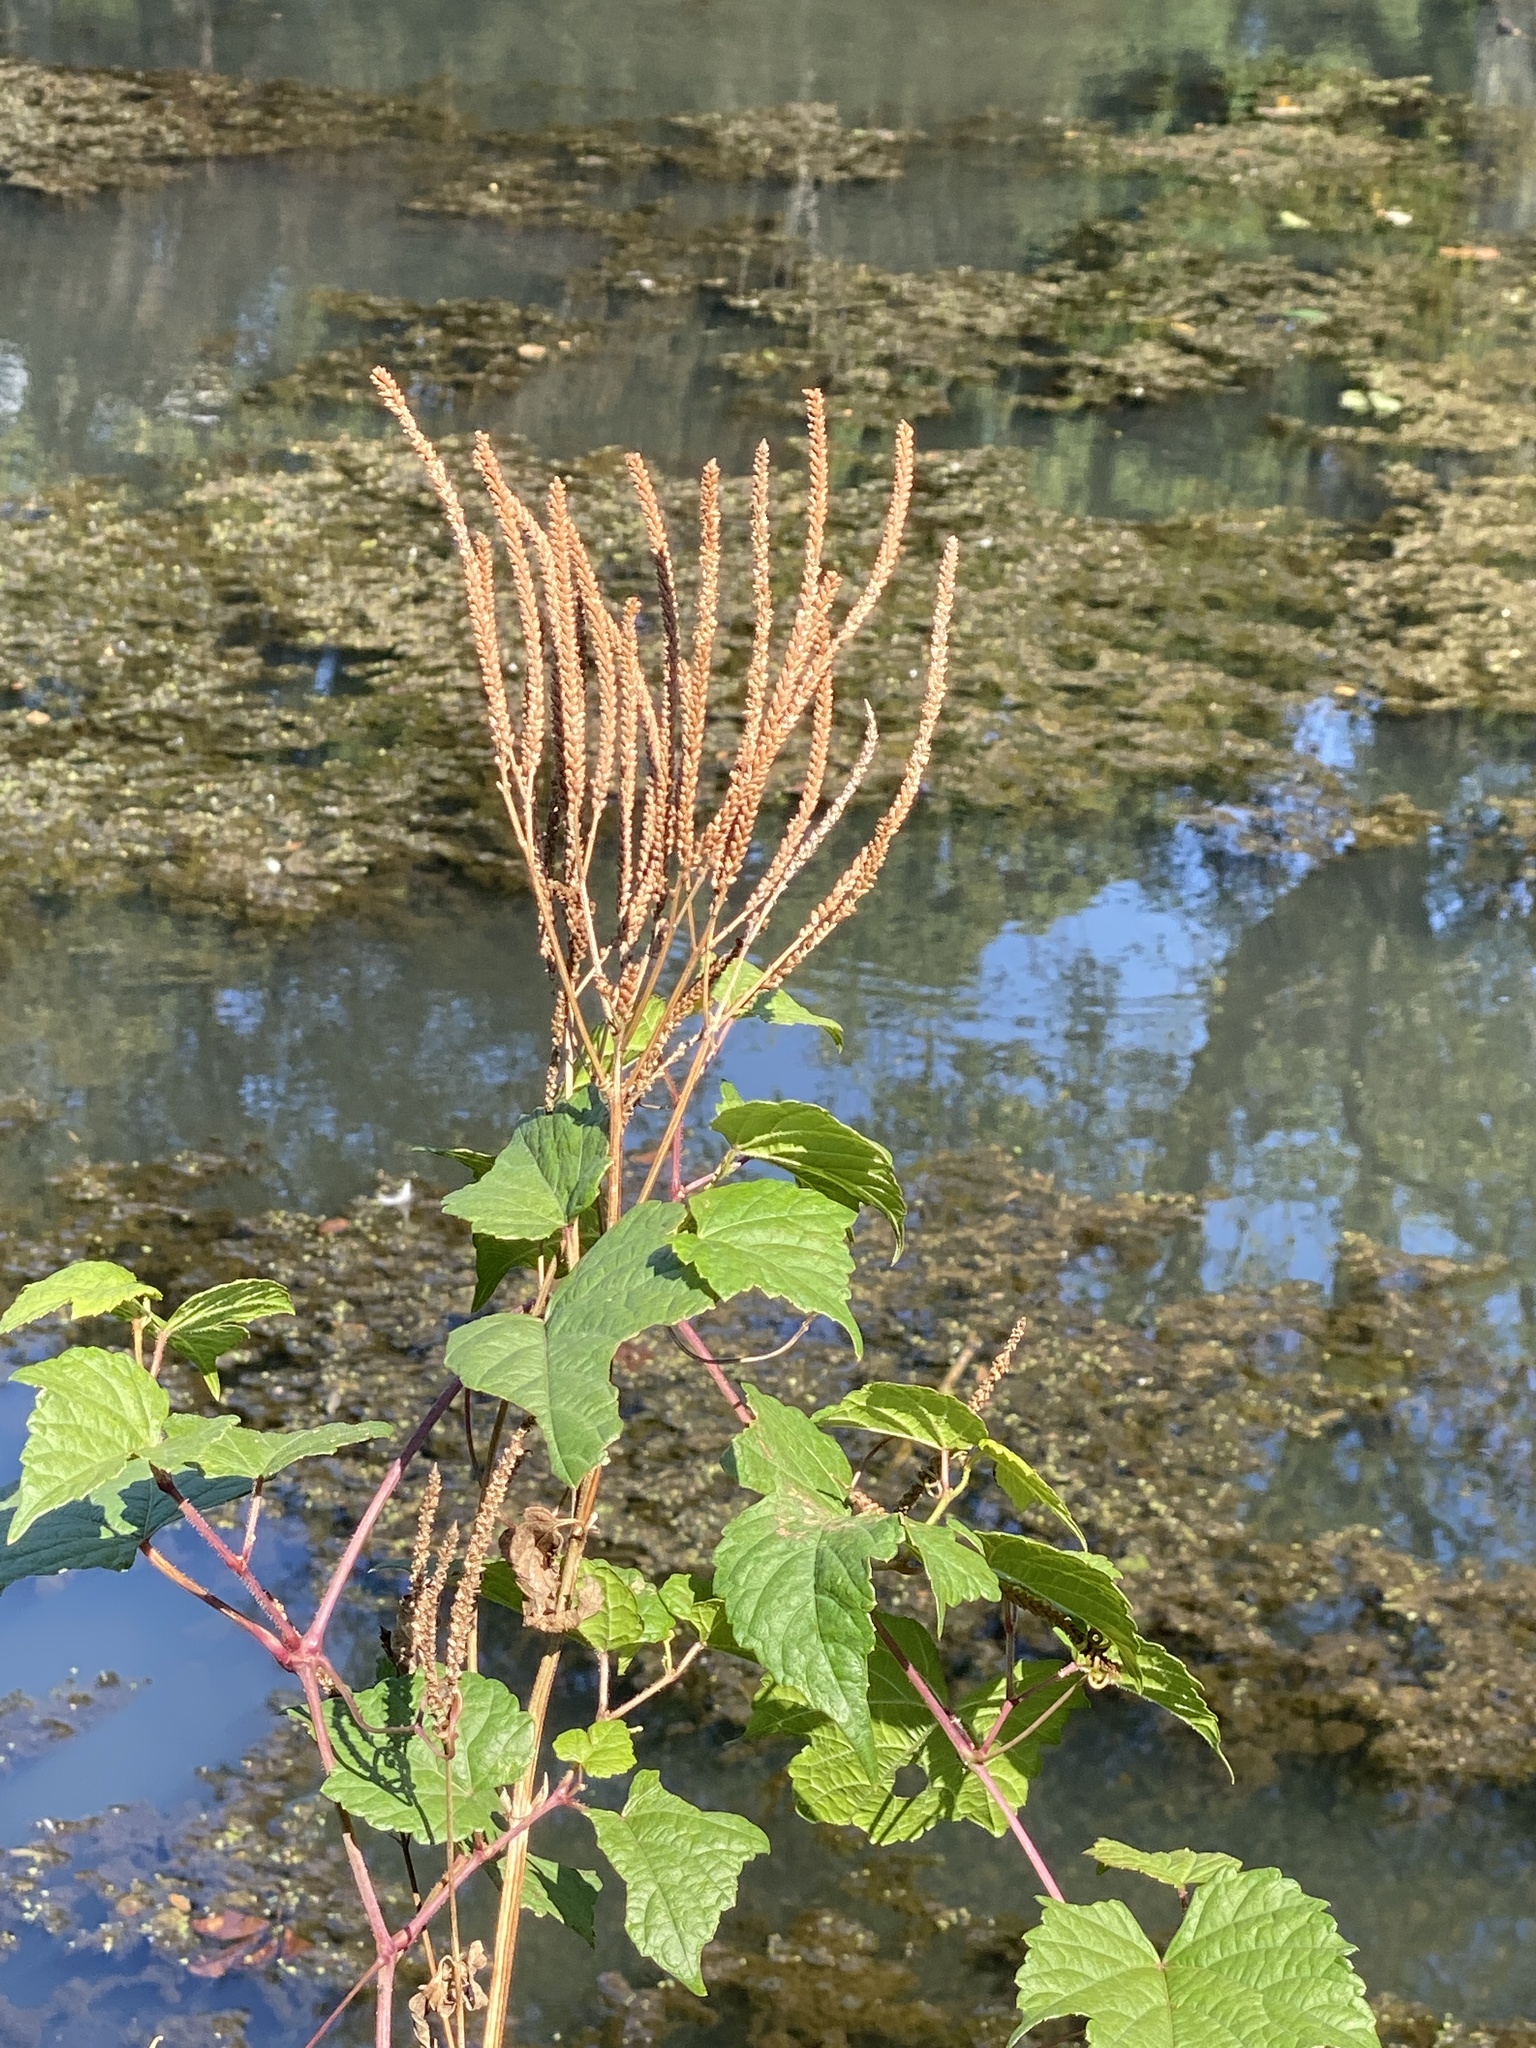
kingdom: Plantae
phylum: Tracheophyta
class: Magnoliopsida
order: Lamiales
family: Verbenaceae
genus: Verbena
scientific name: Verbena hastata
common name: American blue vervain
